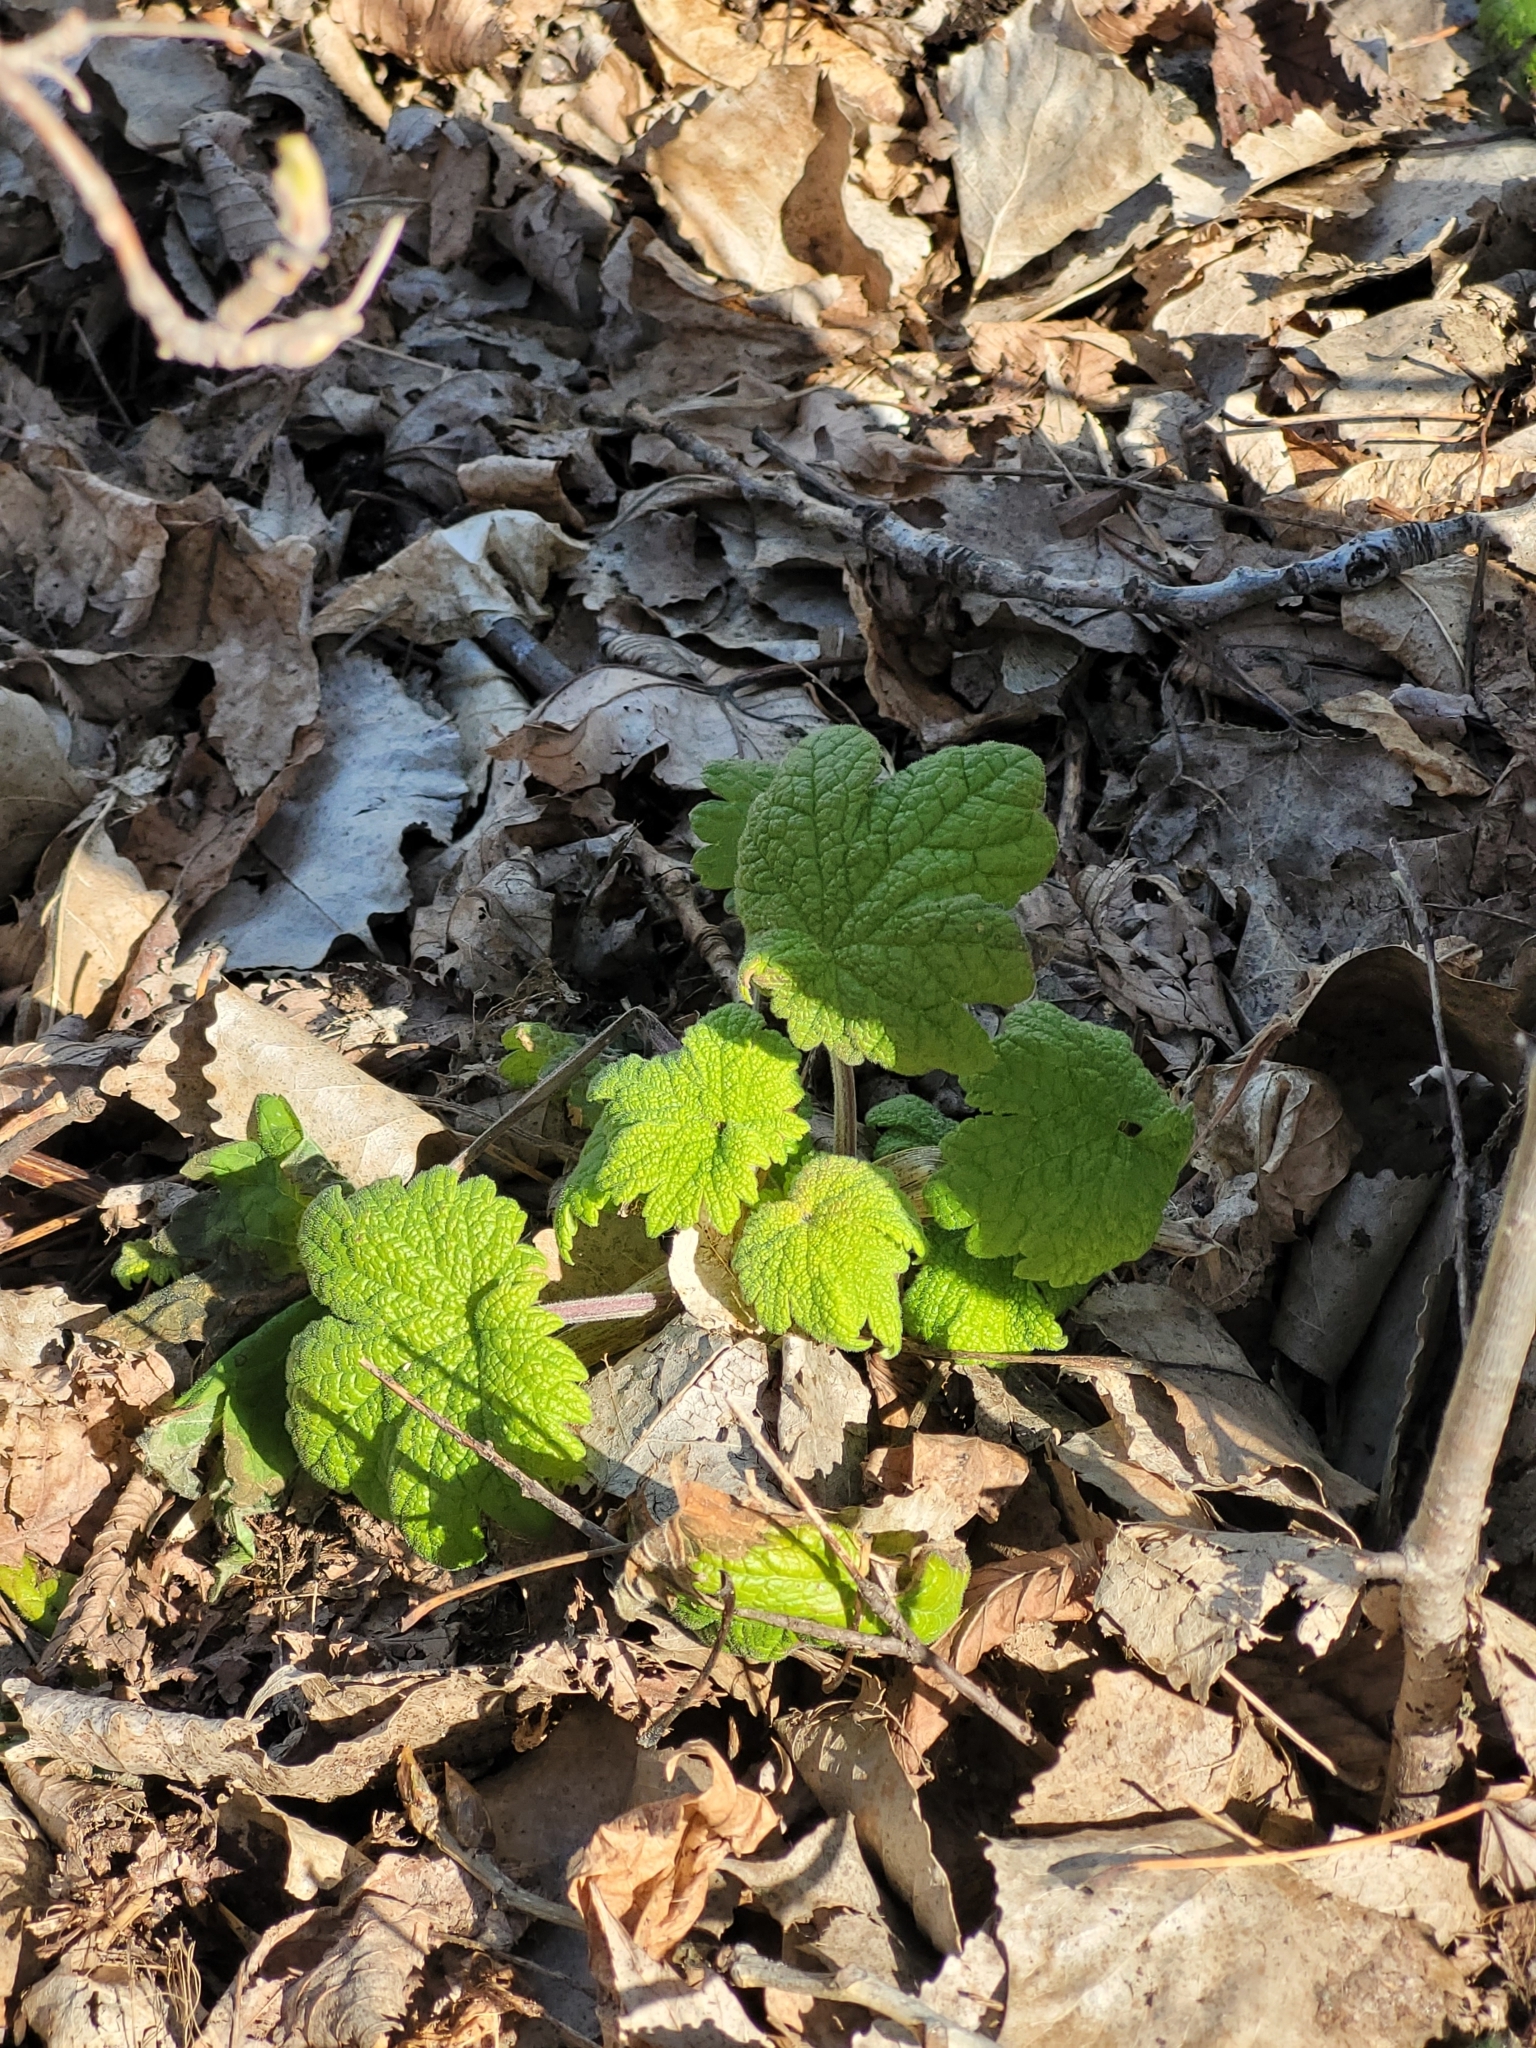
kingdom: Plantae
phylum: Tracheophyta
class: Magnoliopsida
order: Lamiales
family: Lamiaceae
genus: Leonurus
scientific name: Leonurus cardiaca
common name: Motherwort
